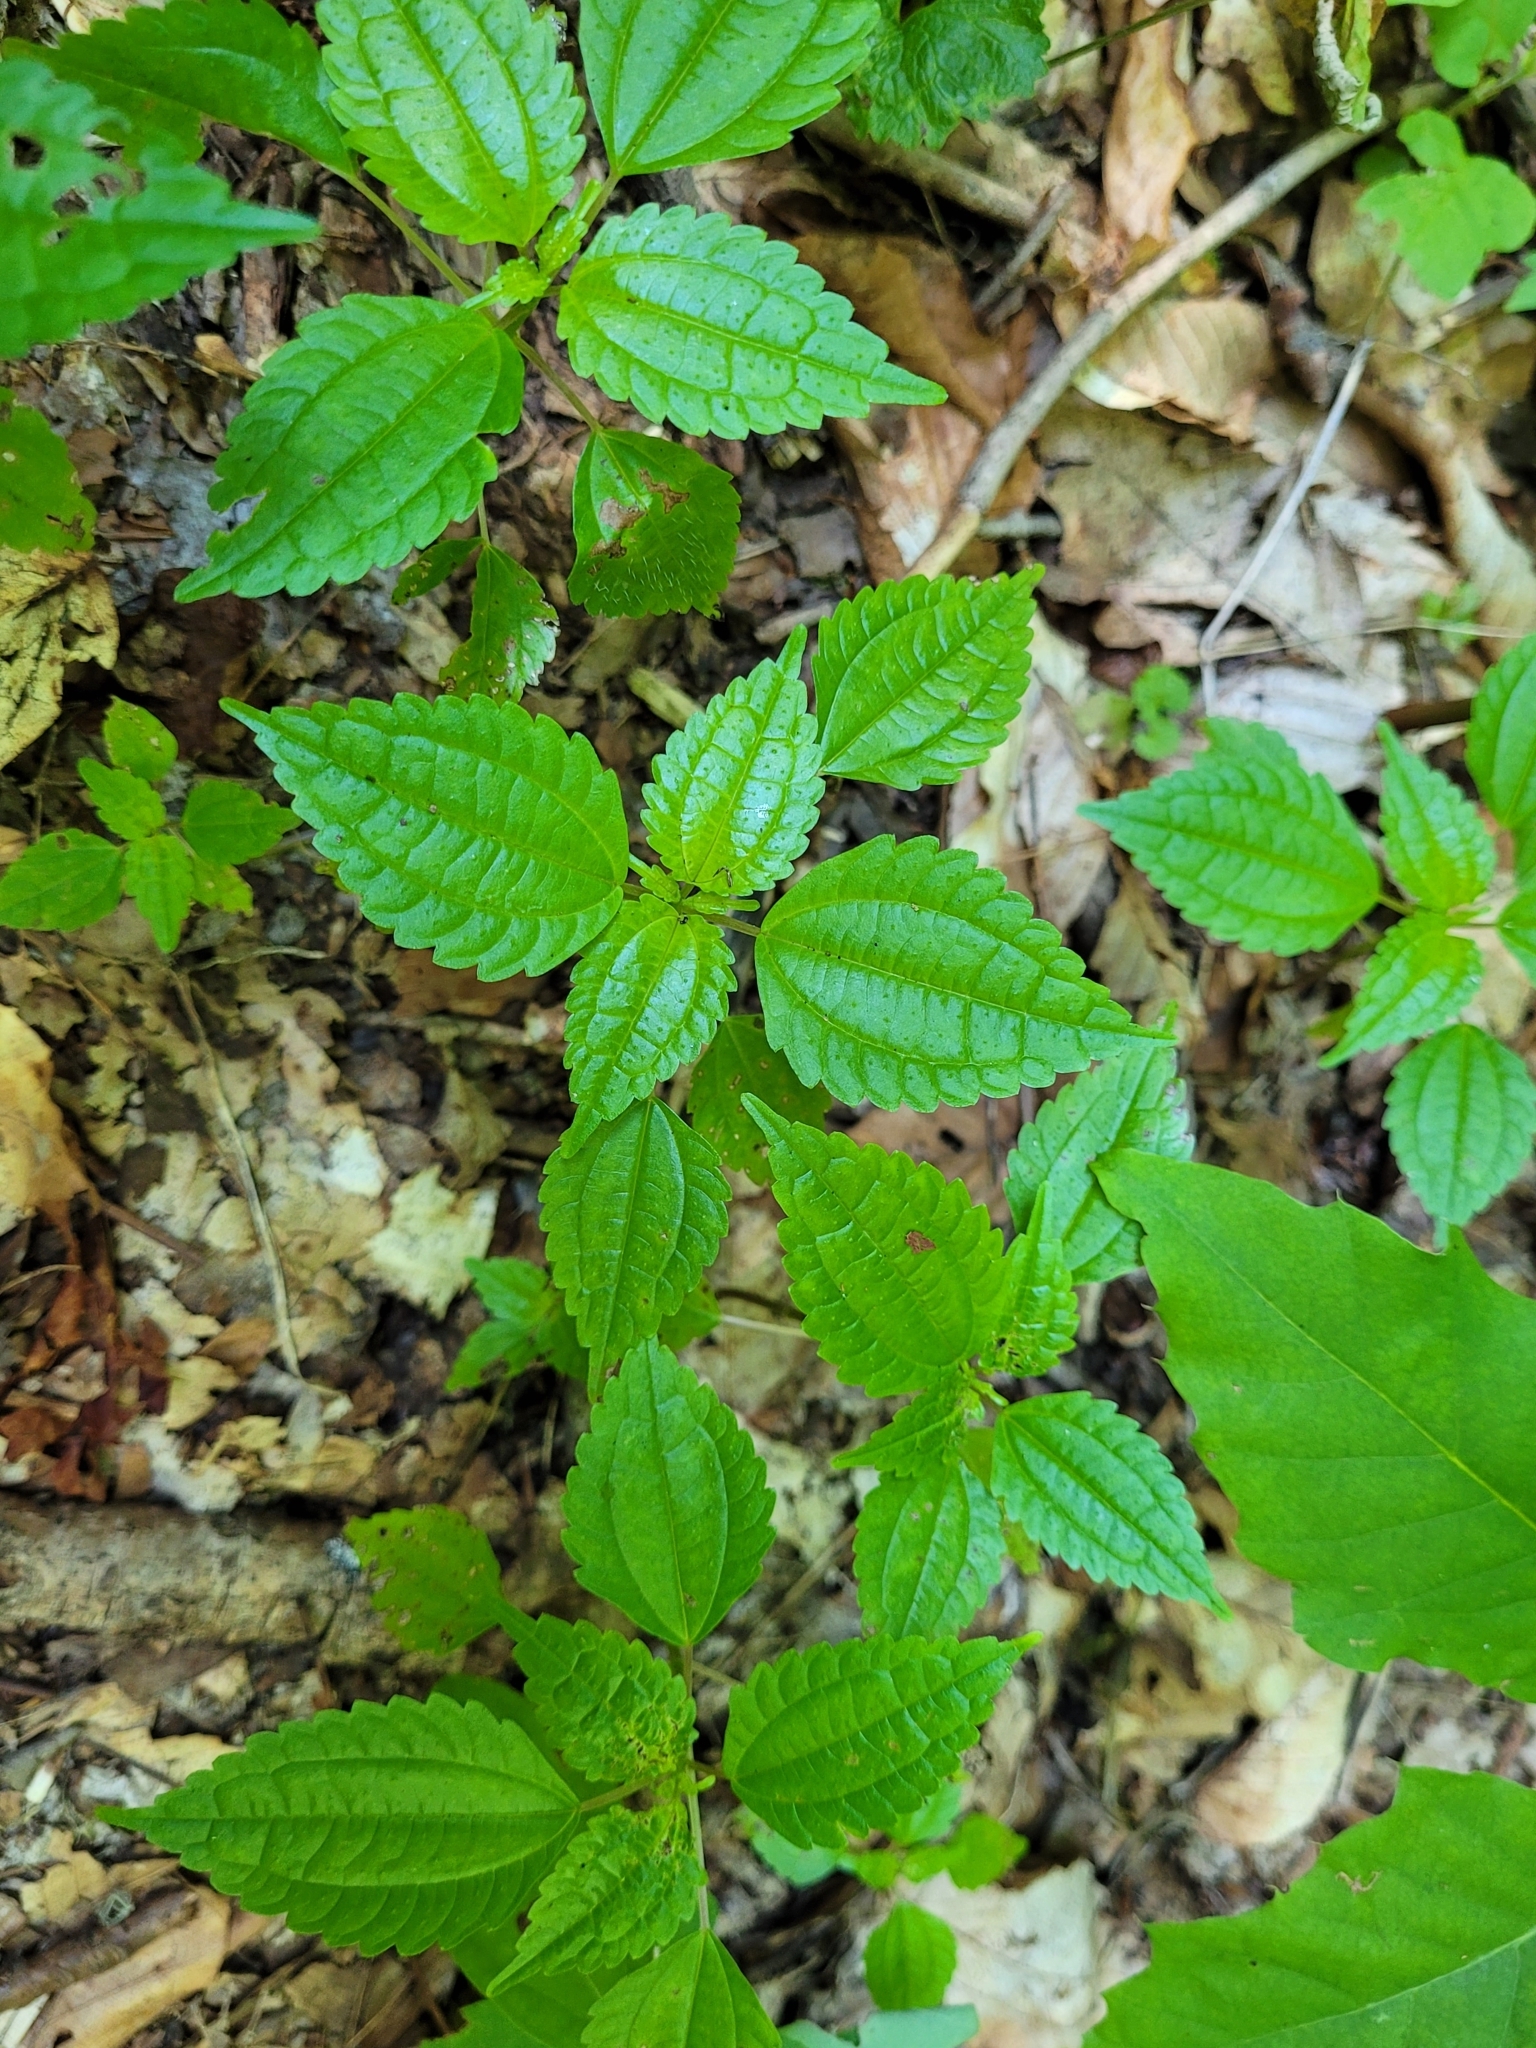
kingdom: Plantae
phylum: Tracheophyta
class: Magnoliopsida
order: Rosales
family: Urticaceae
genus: Pilea
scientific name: Pilea pumila
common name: Clearweed
